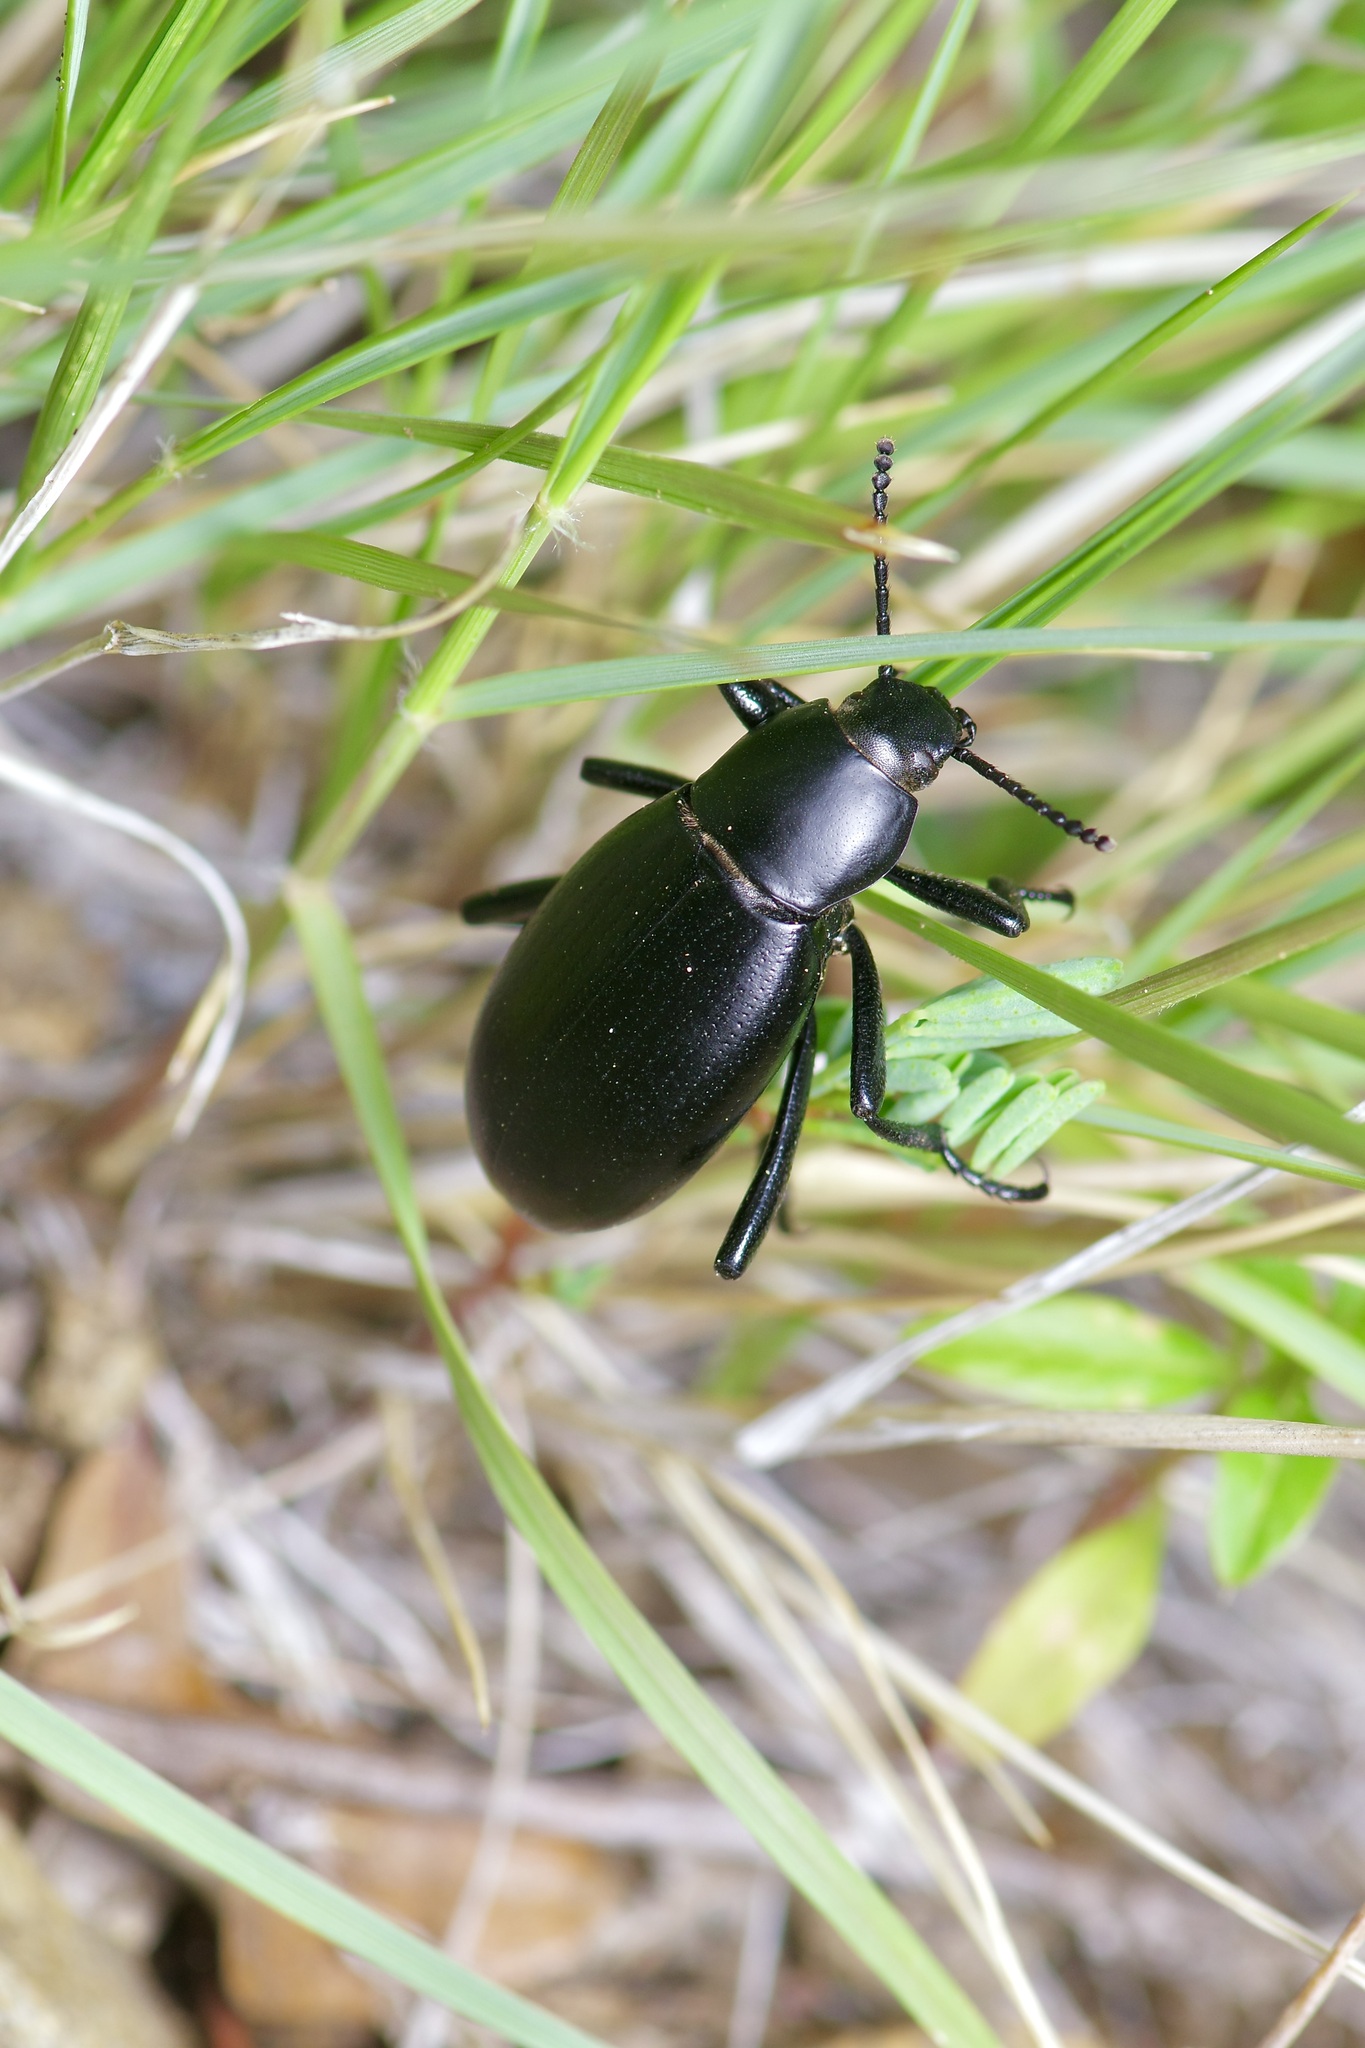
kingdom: Animalia
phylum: Arthropoda
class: Insecta
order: Coleoptera
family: Tenebrionidae
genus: Eleodes
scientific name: Eleodes carbonaria
